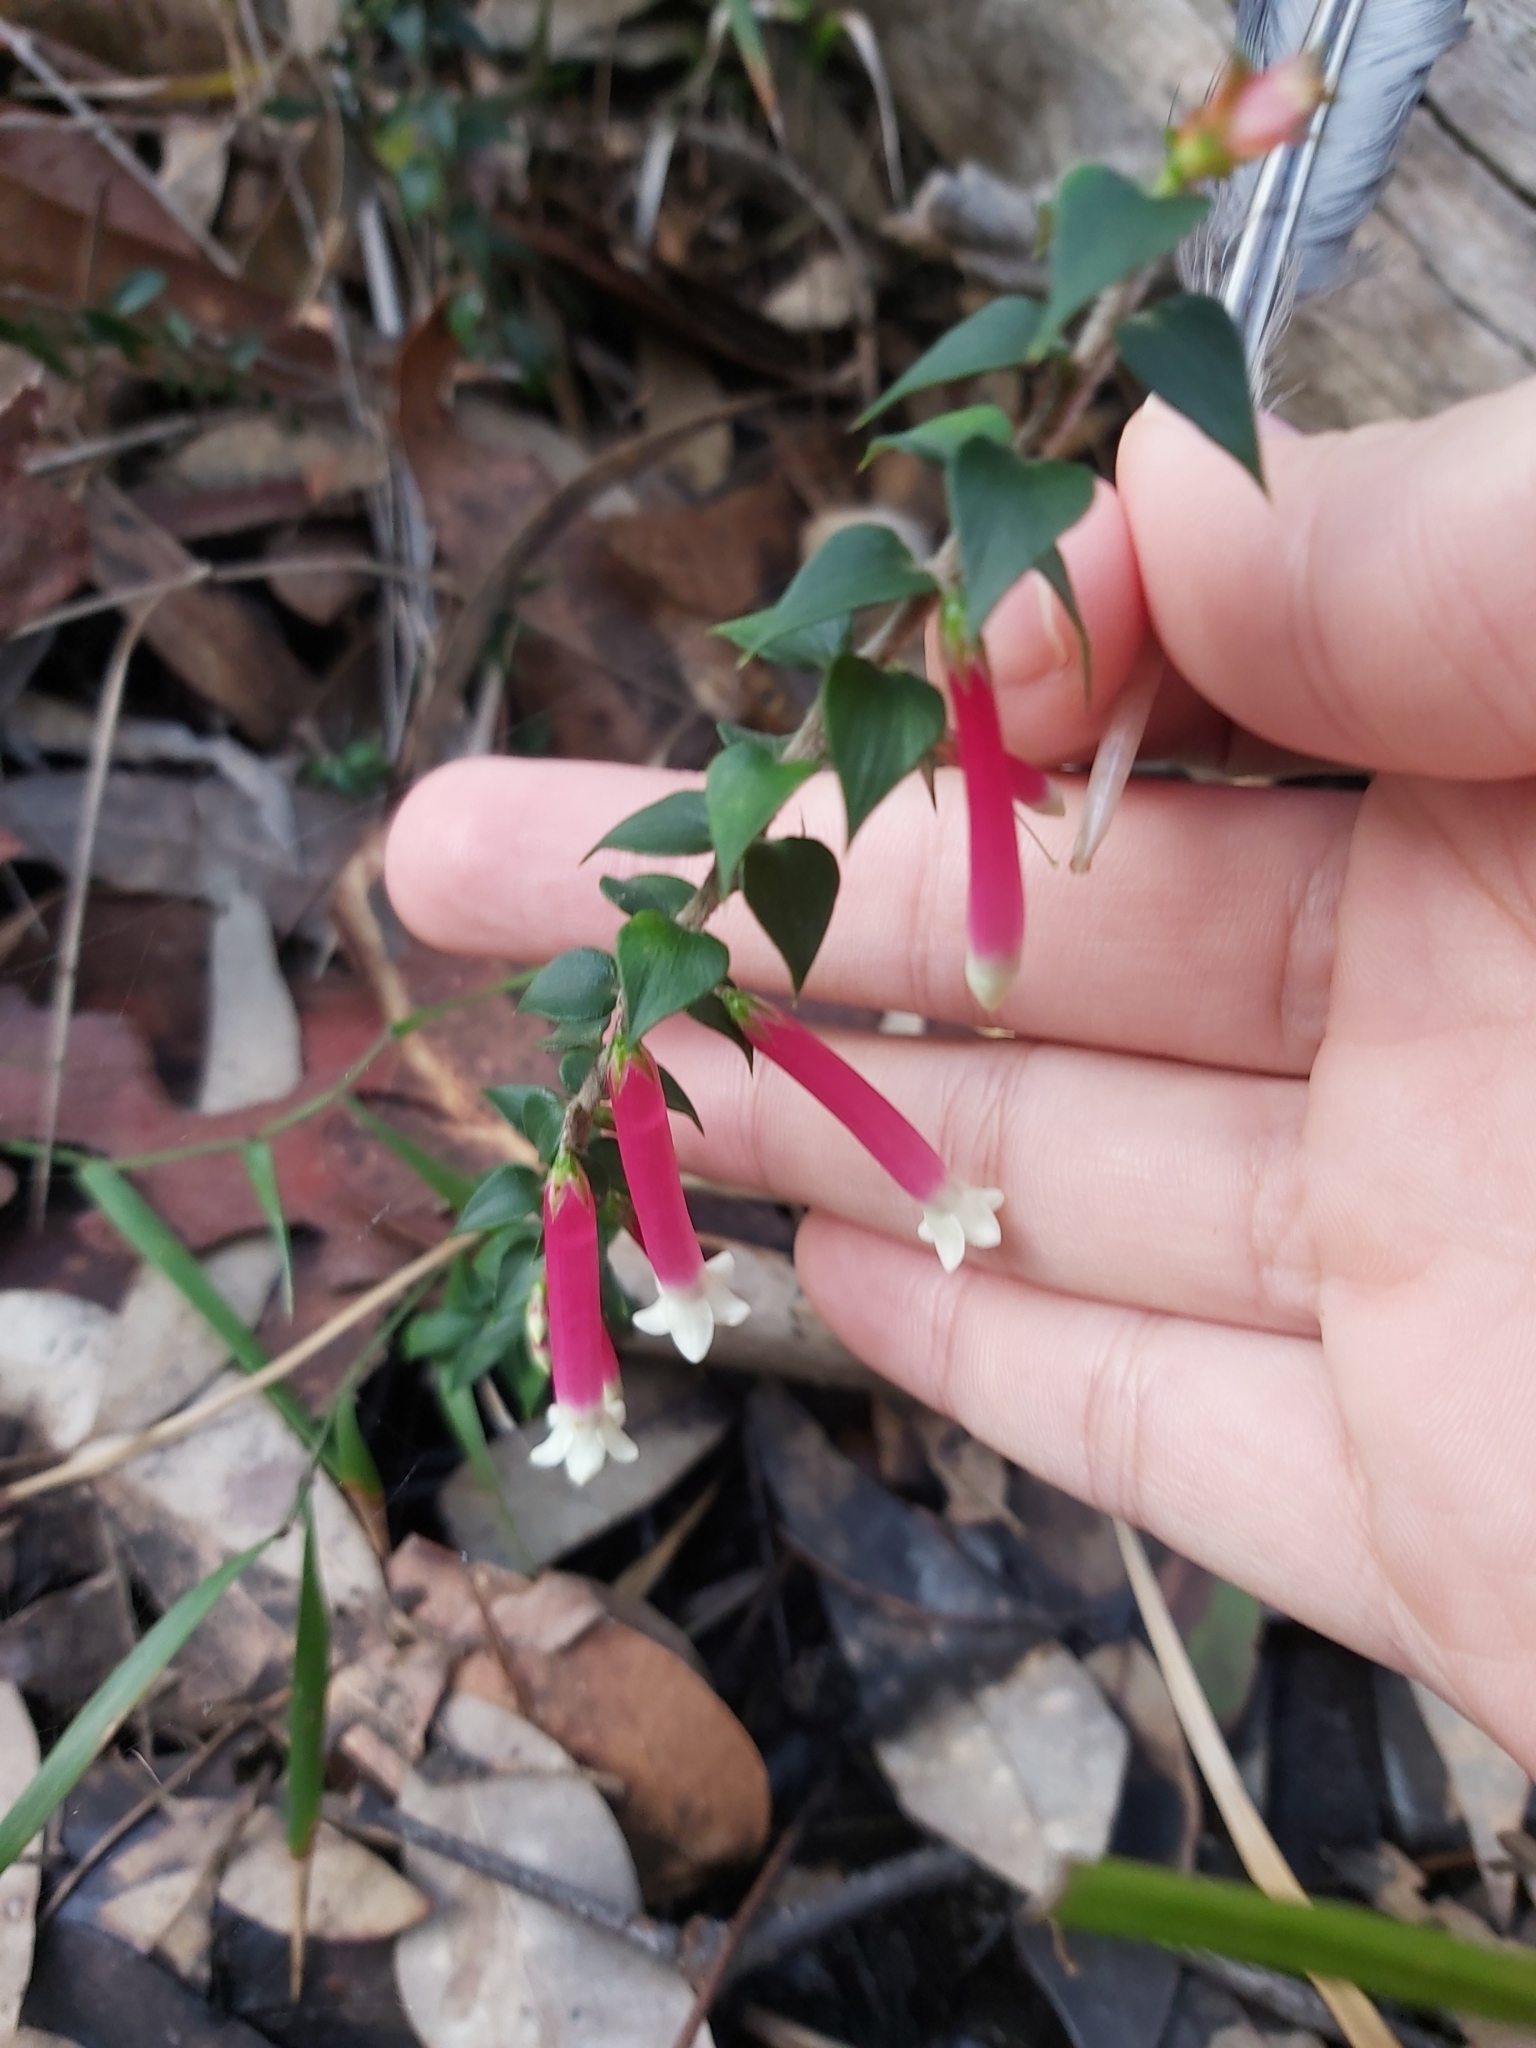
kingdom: Plantae
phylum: Tracheophyta
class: Magnoliopsida
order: Ericales
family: Ericaceae
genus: Epacris
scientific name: Epacris longiflora
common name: Fuchsia-heath
